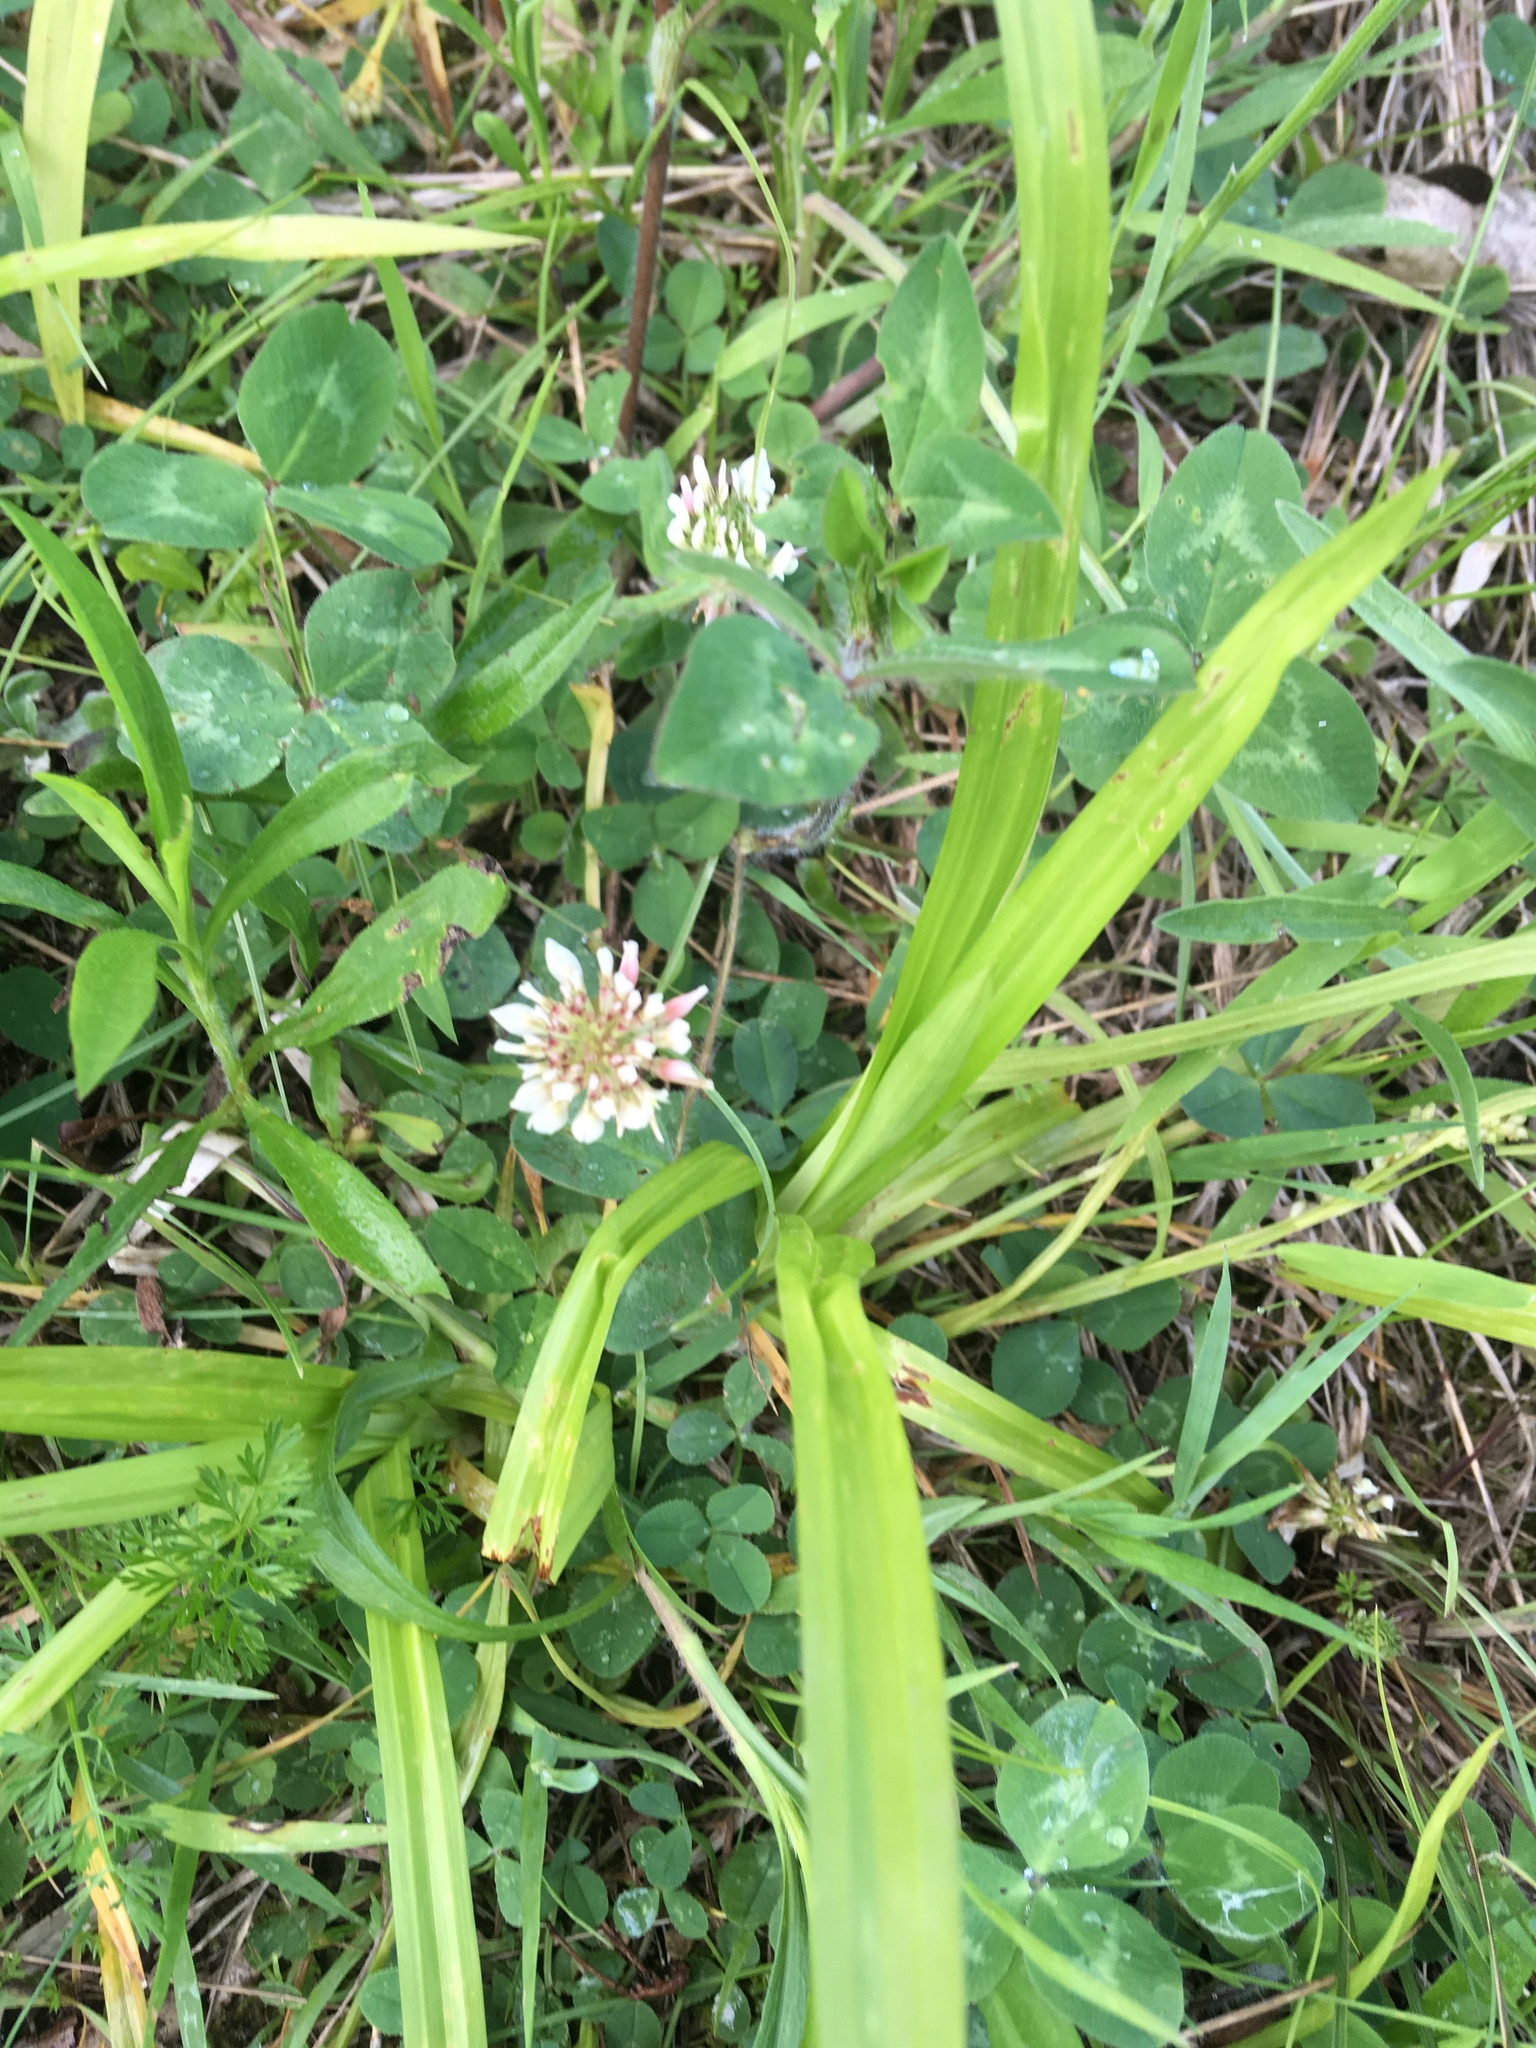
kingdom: Plantae
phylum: Tracheophyta
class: Magnoliopsida
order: Fabales
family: Fabaceae
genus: Trifolium
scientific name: Trifolium repens
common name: White clover
